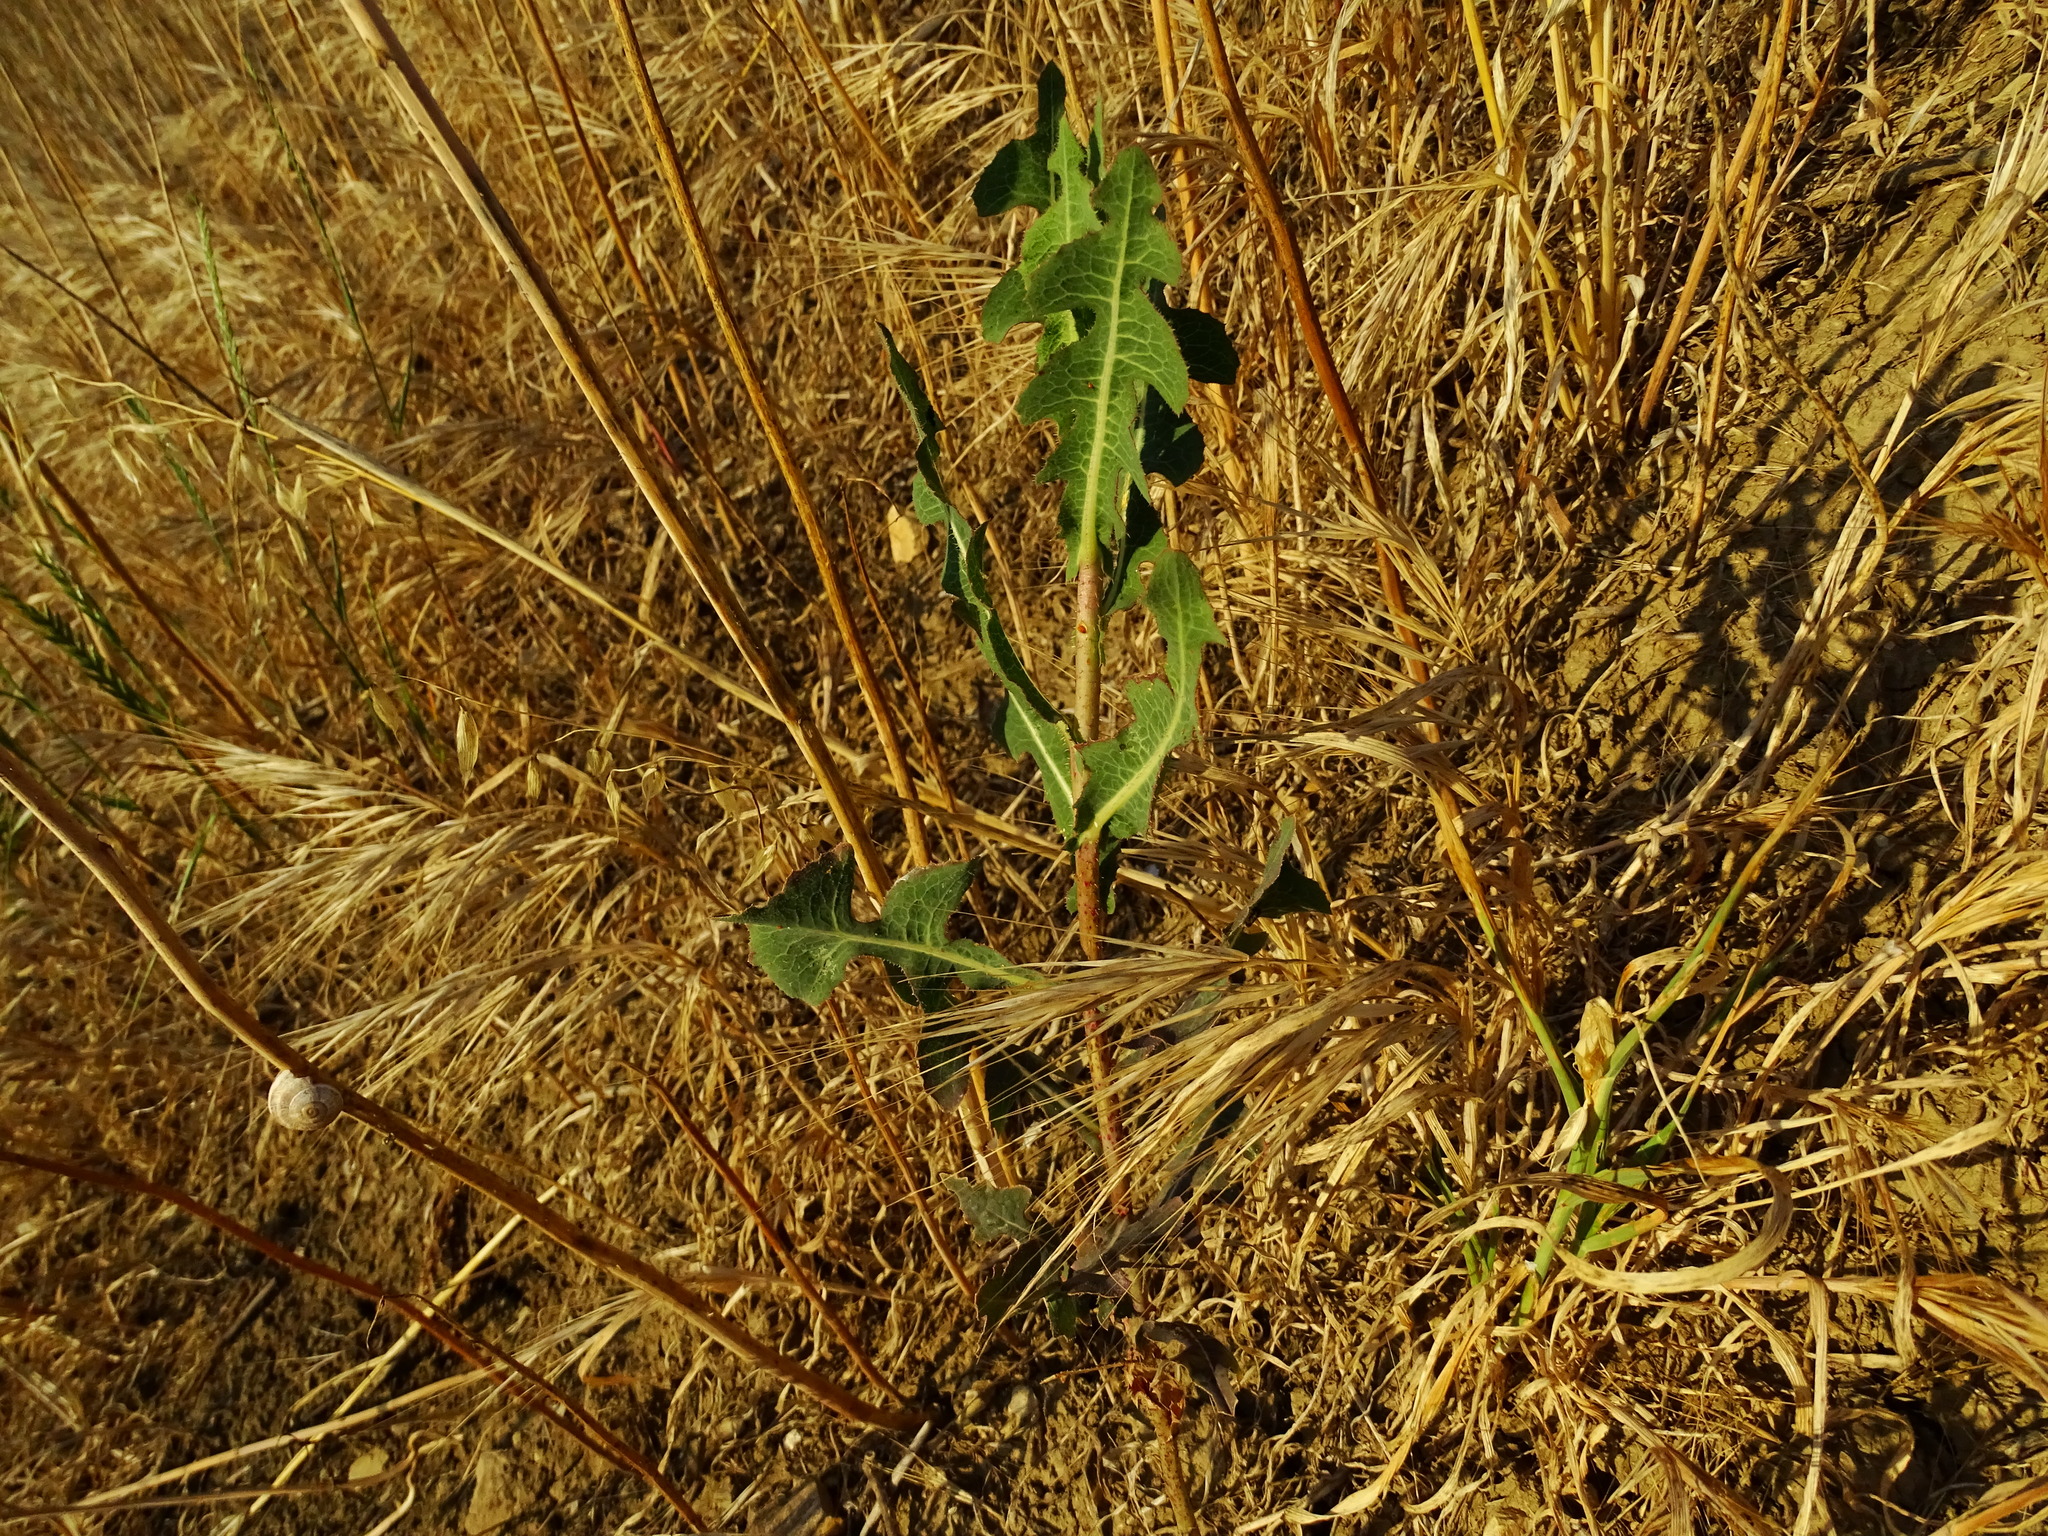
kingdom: Plantae
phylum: Tracheophyta
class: Magnoliopsida
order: Asterales
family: Asteraceae
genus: Lactuca
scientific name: Lactuca serriola
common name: Prickly lettuce
